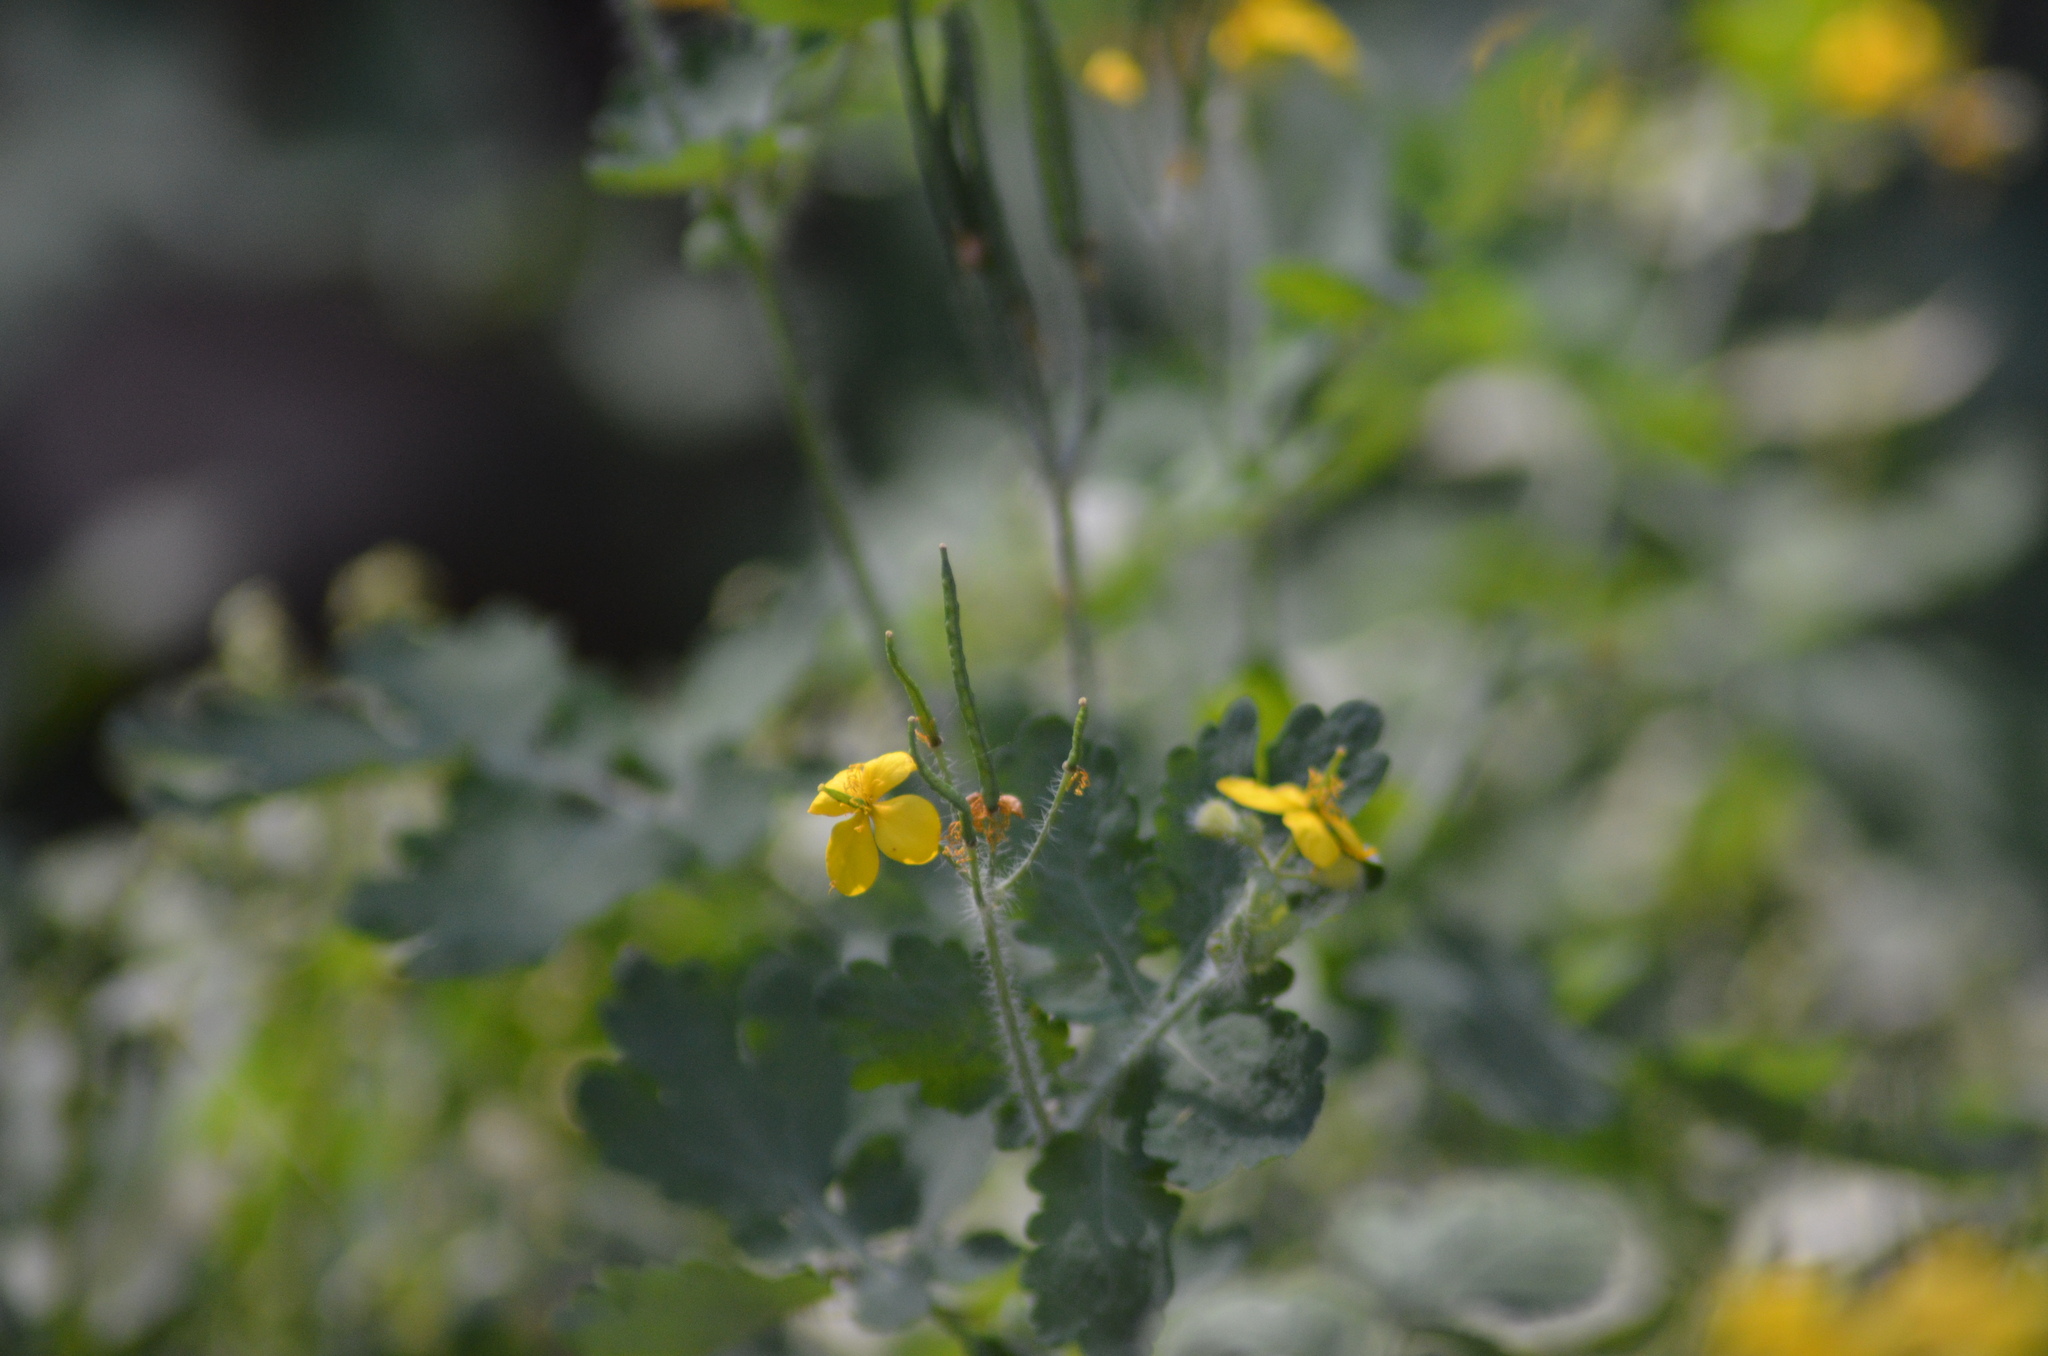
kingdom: Plantae
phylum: Tracheophyta
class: Magnoliopsida
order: Ranunculales
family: Papaveraceae
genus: Chelidonium
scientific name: Chelidonium majus
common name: Greater celandine
